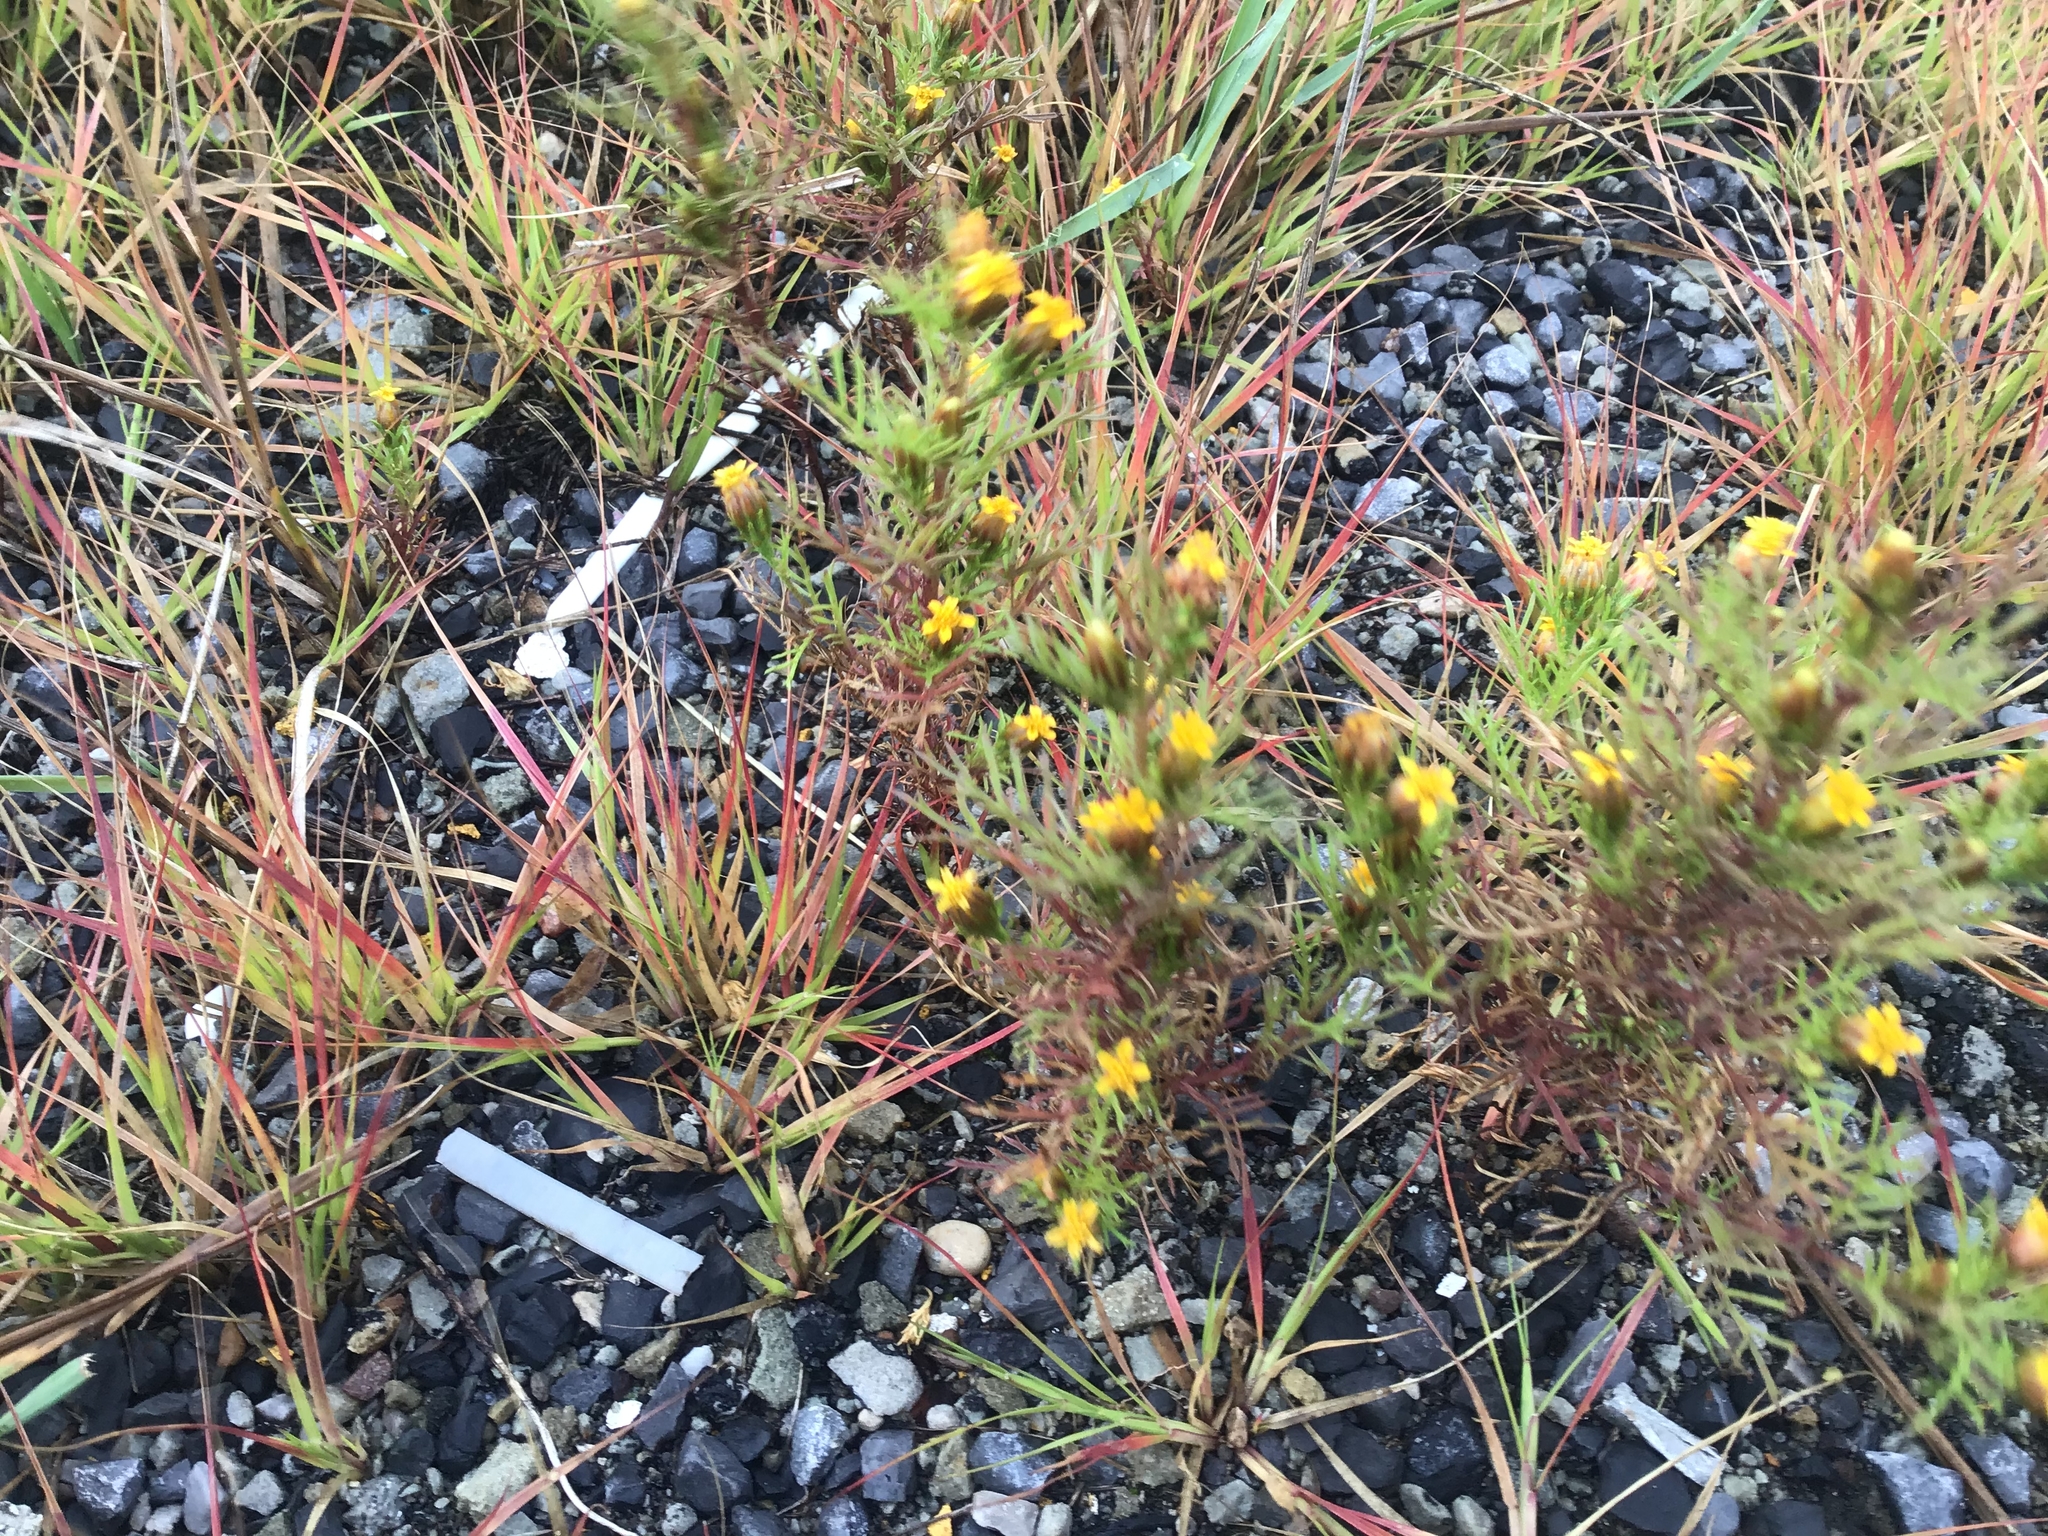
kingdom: Plantae
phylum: Tracheophyta
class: Magnoliopsida
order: Asterales
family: Asteraceae
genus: Dyssodia
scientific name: Dyssodia papposa
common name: Dogweed
